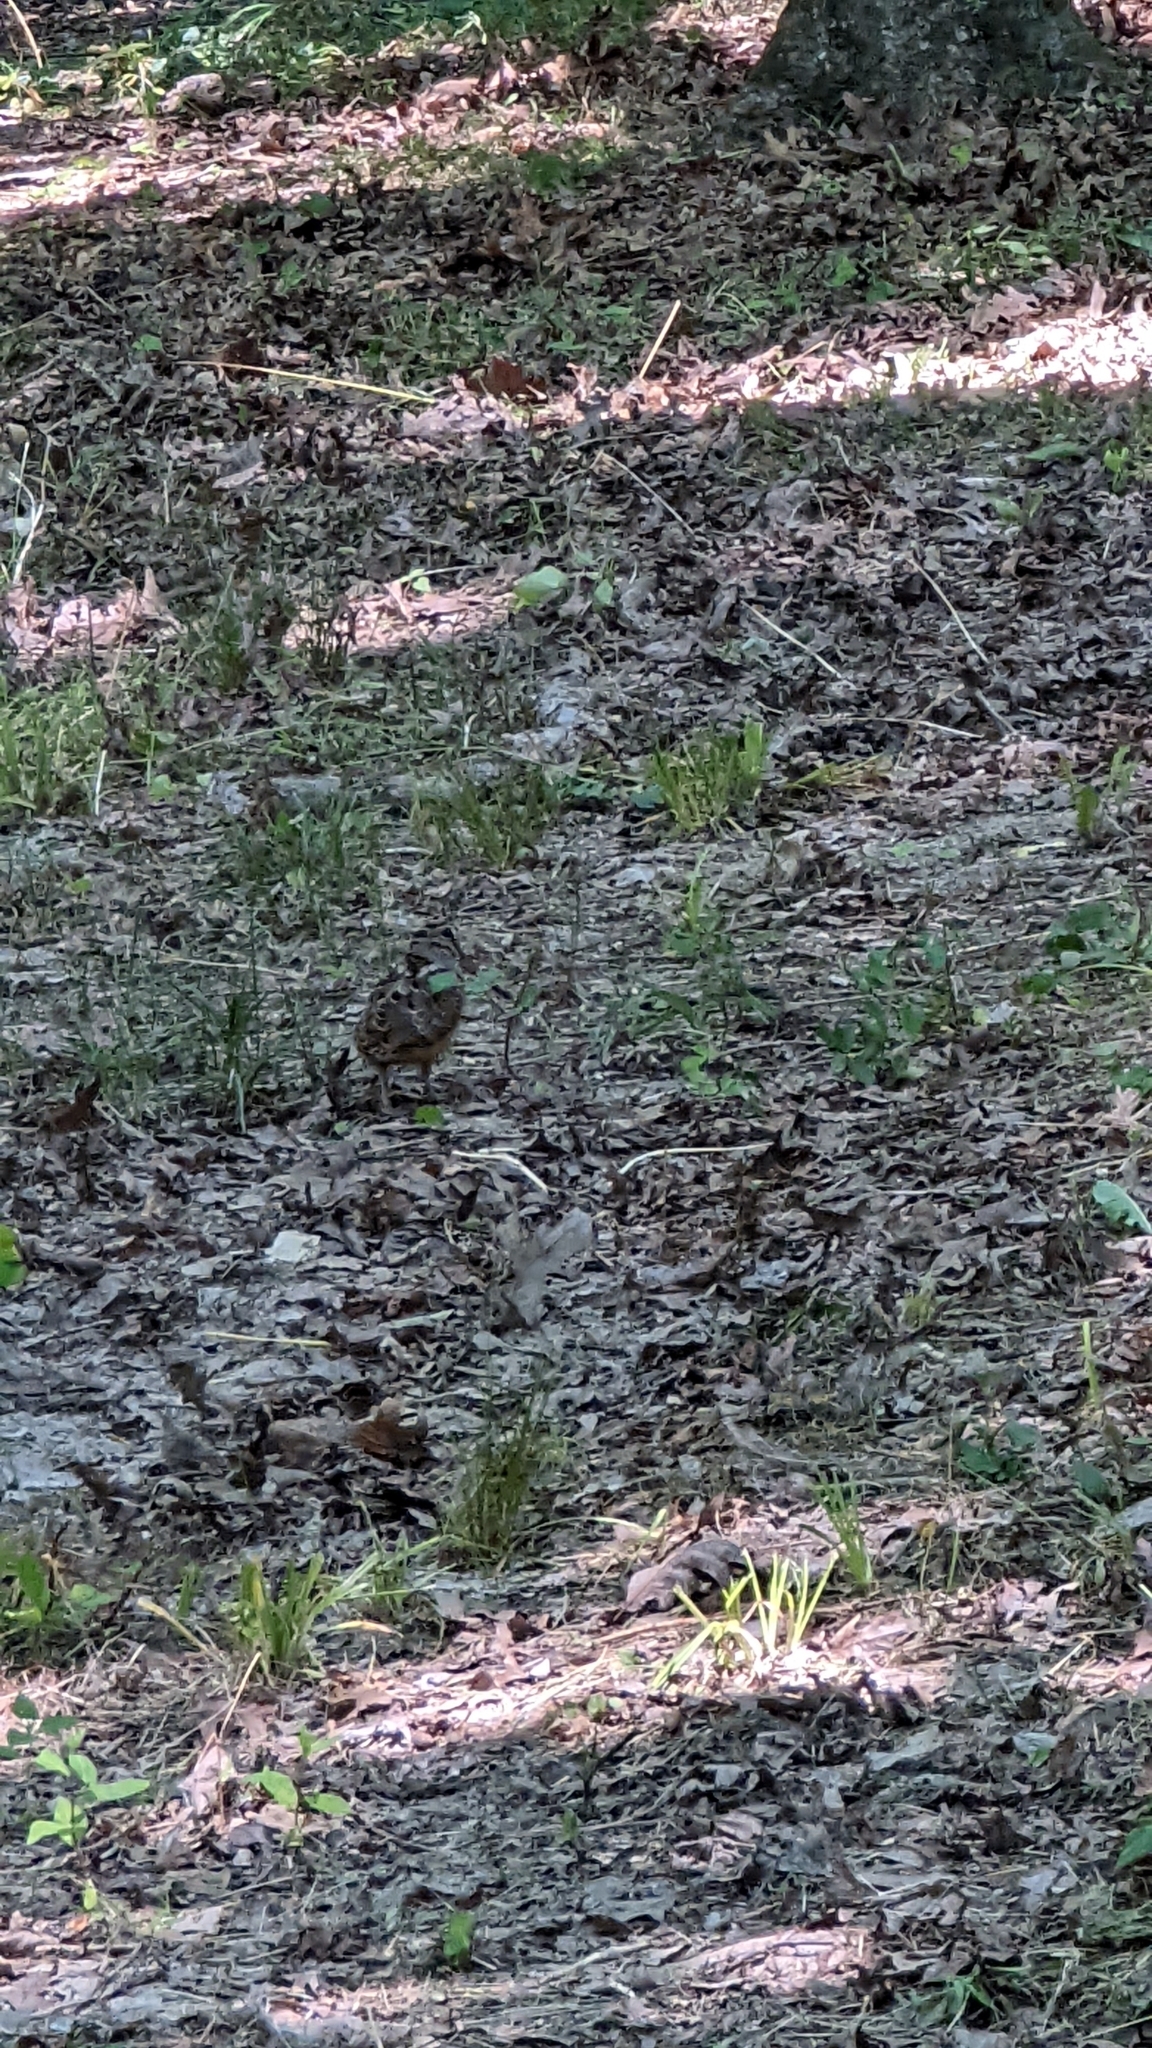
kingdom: Animalia
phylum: Chordata
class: Aves
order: Charadriiformes
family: Scolopacidae
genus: Scolopax
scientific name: Scolopax minor
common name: American woodcock
